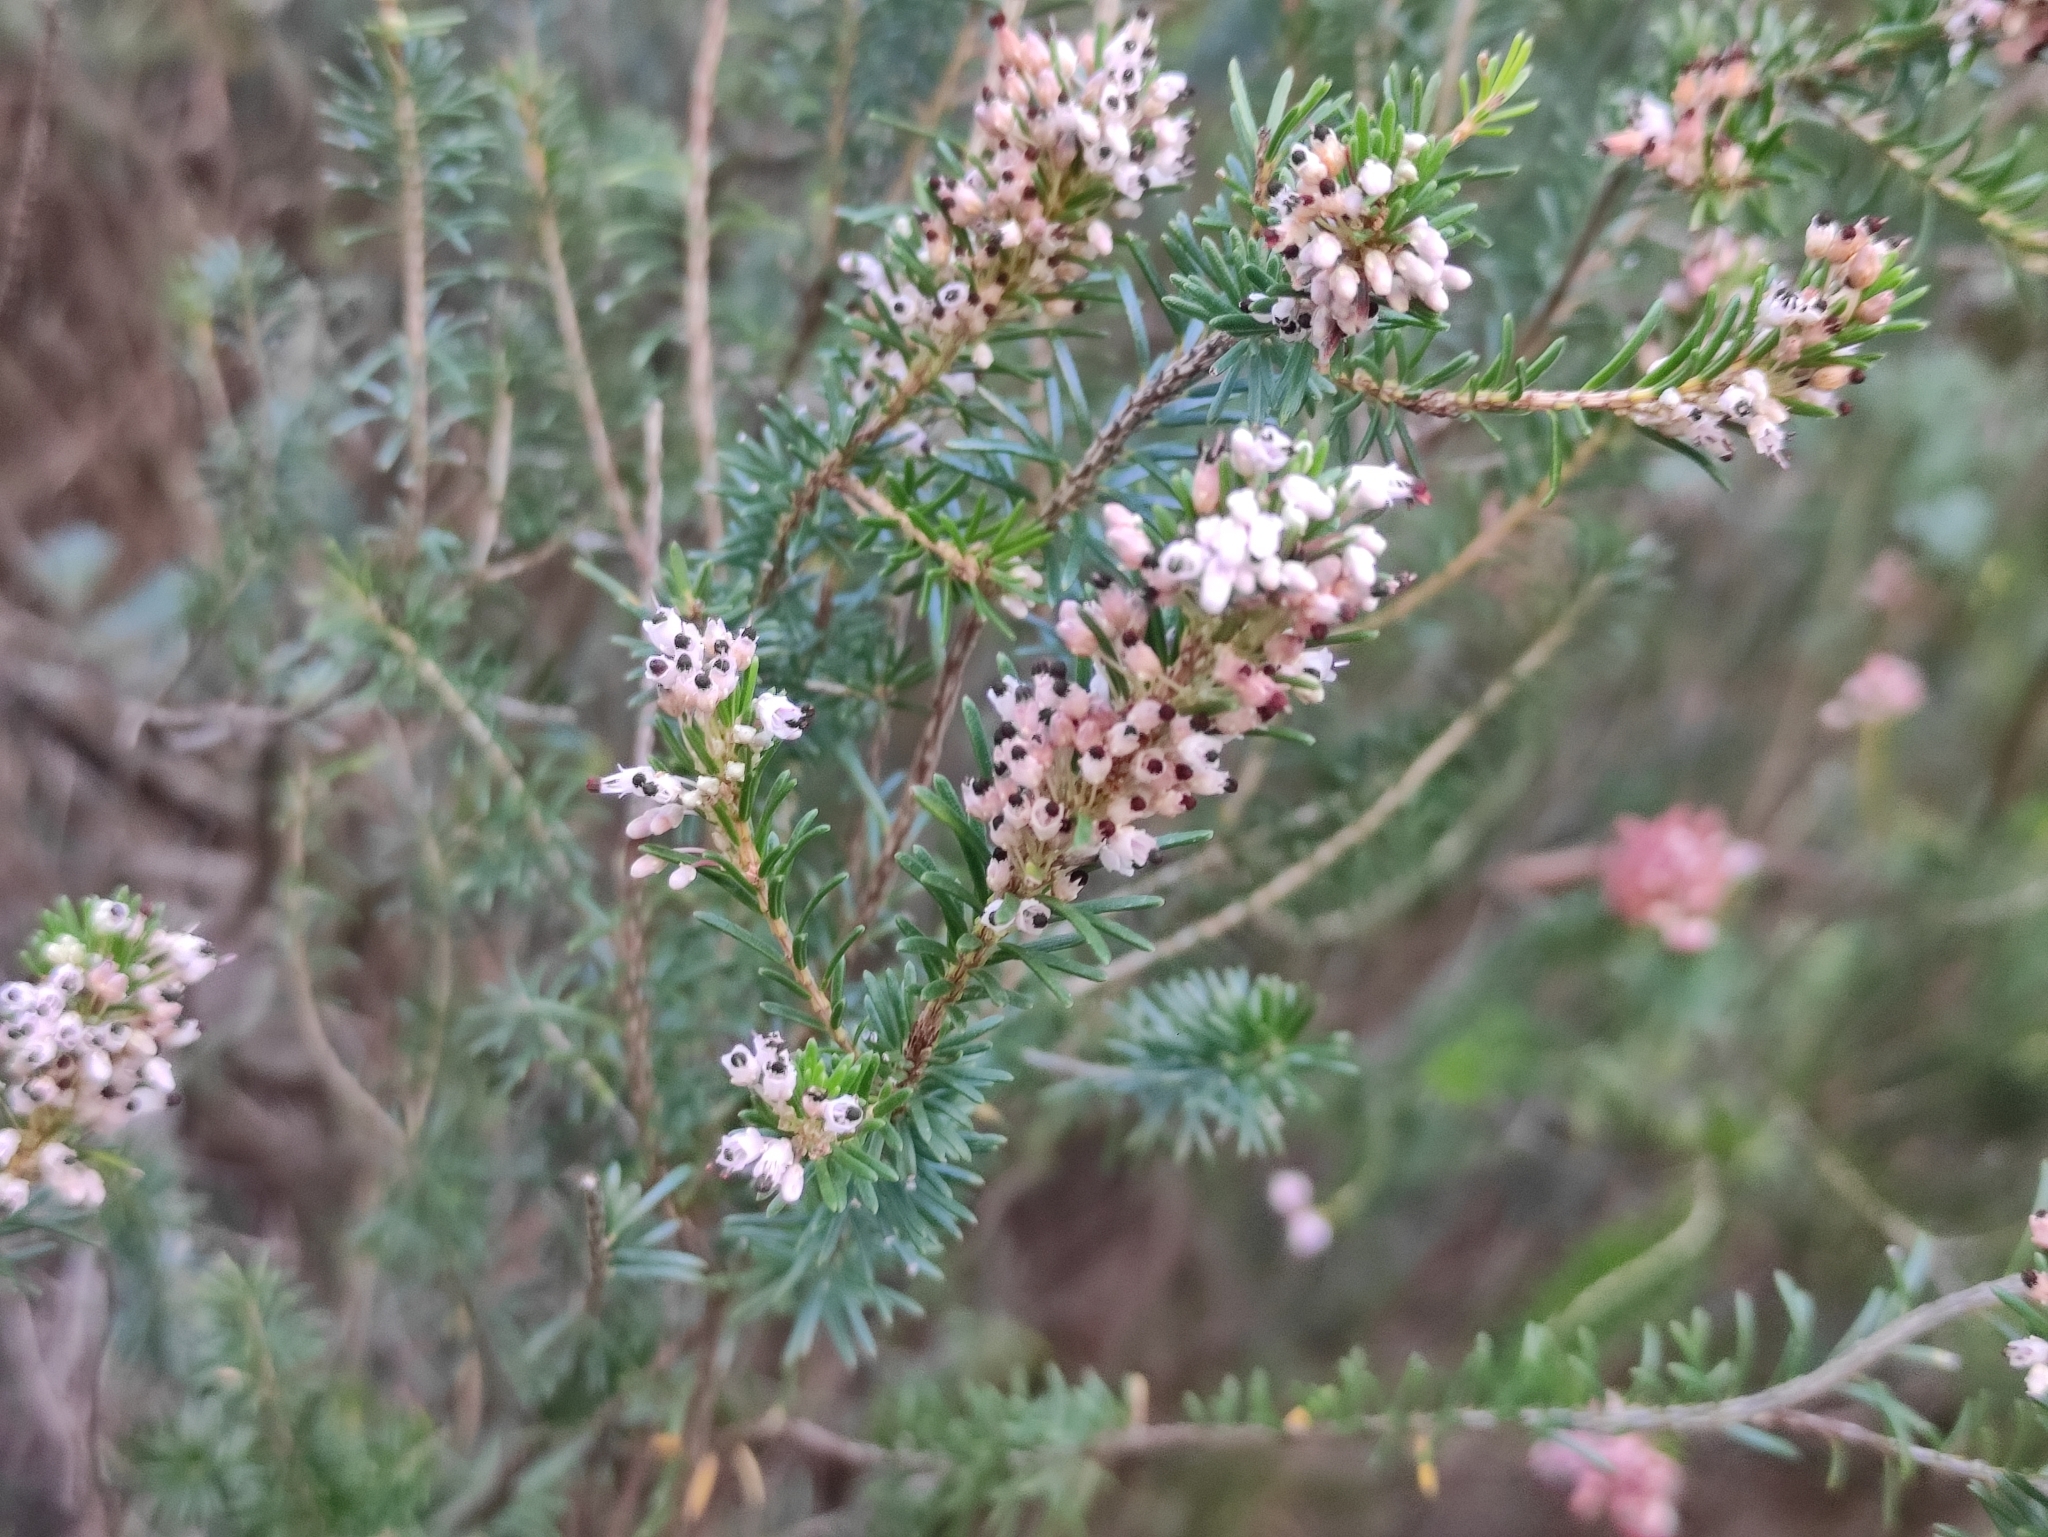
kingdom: Plantae
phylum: Tracheophyta
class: Magnoliopsida
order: Ericales
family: Ericaceae
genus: Erica
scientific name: Erica multiflora
